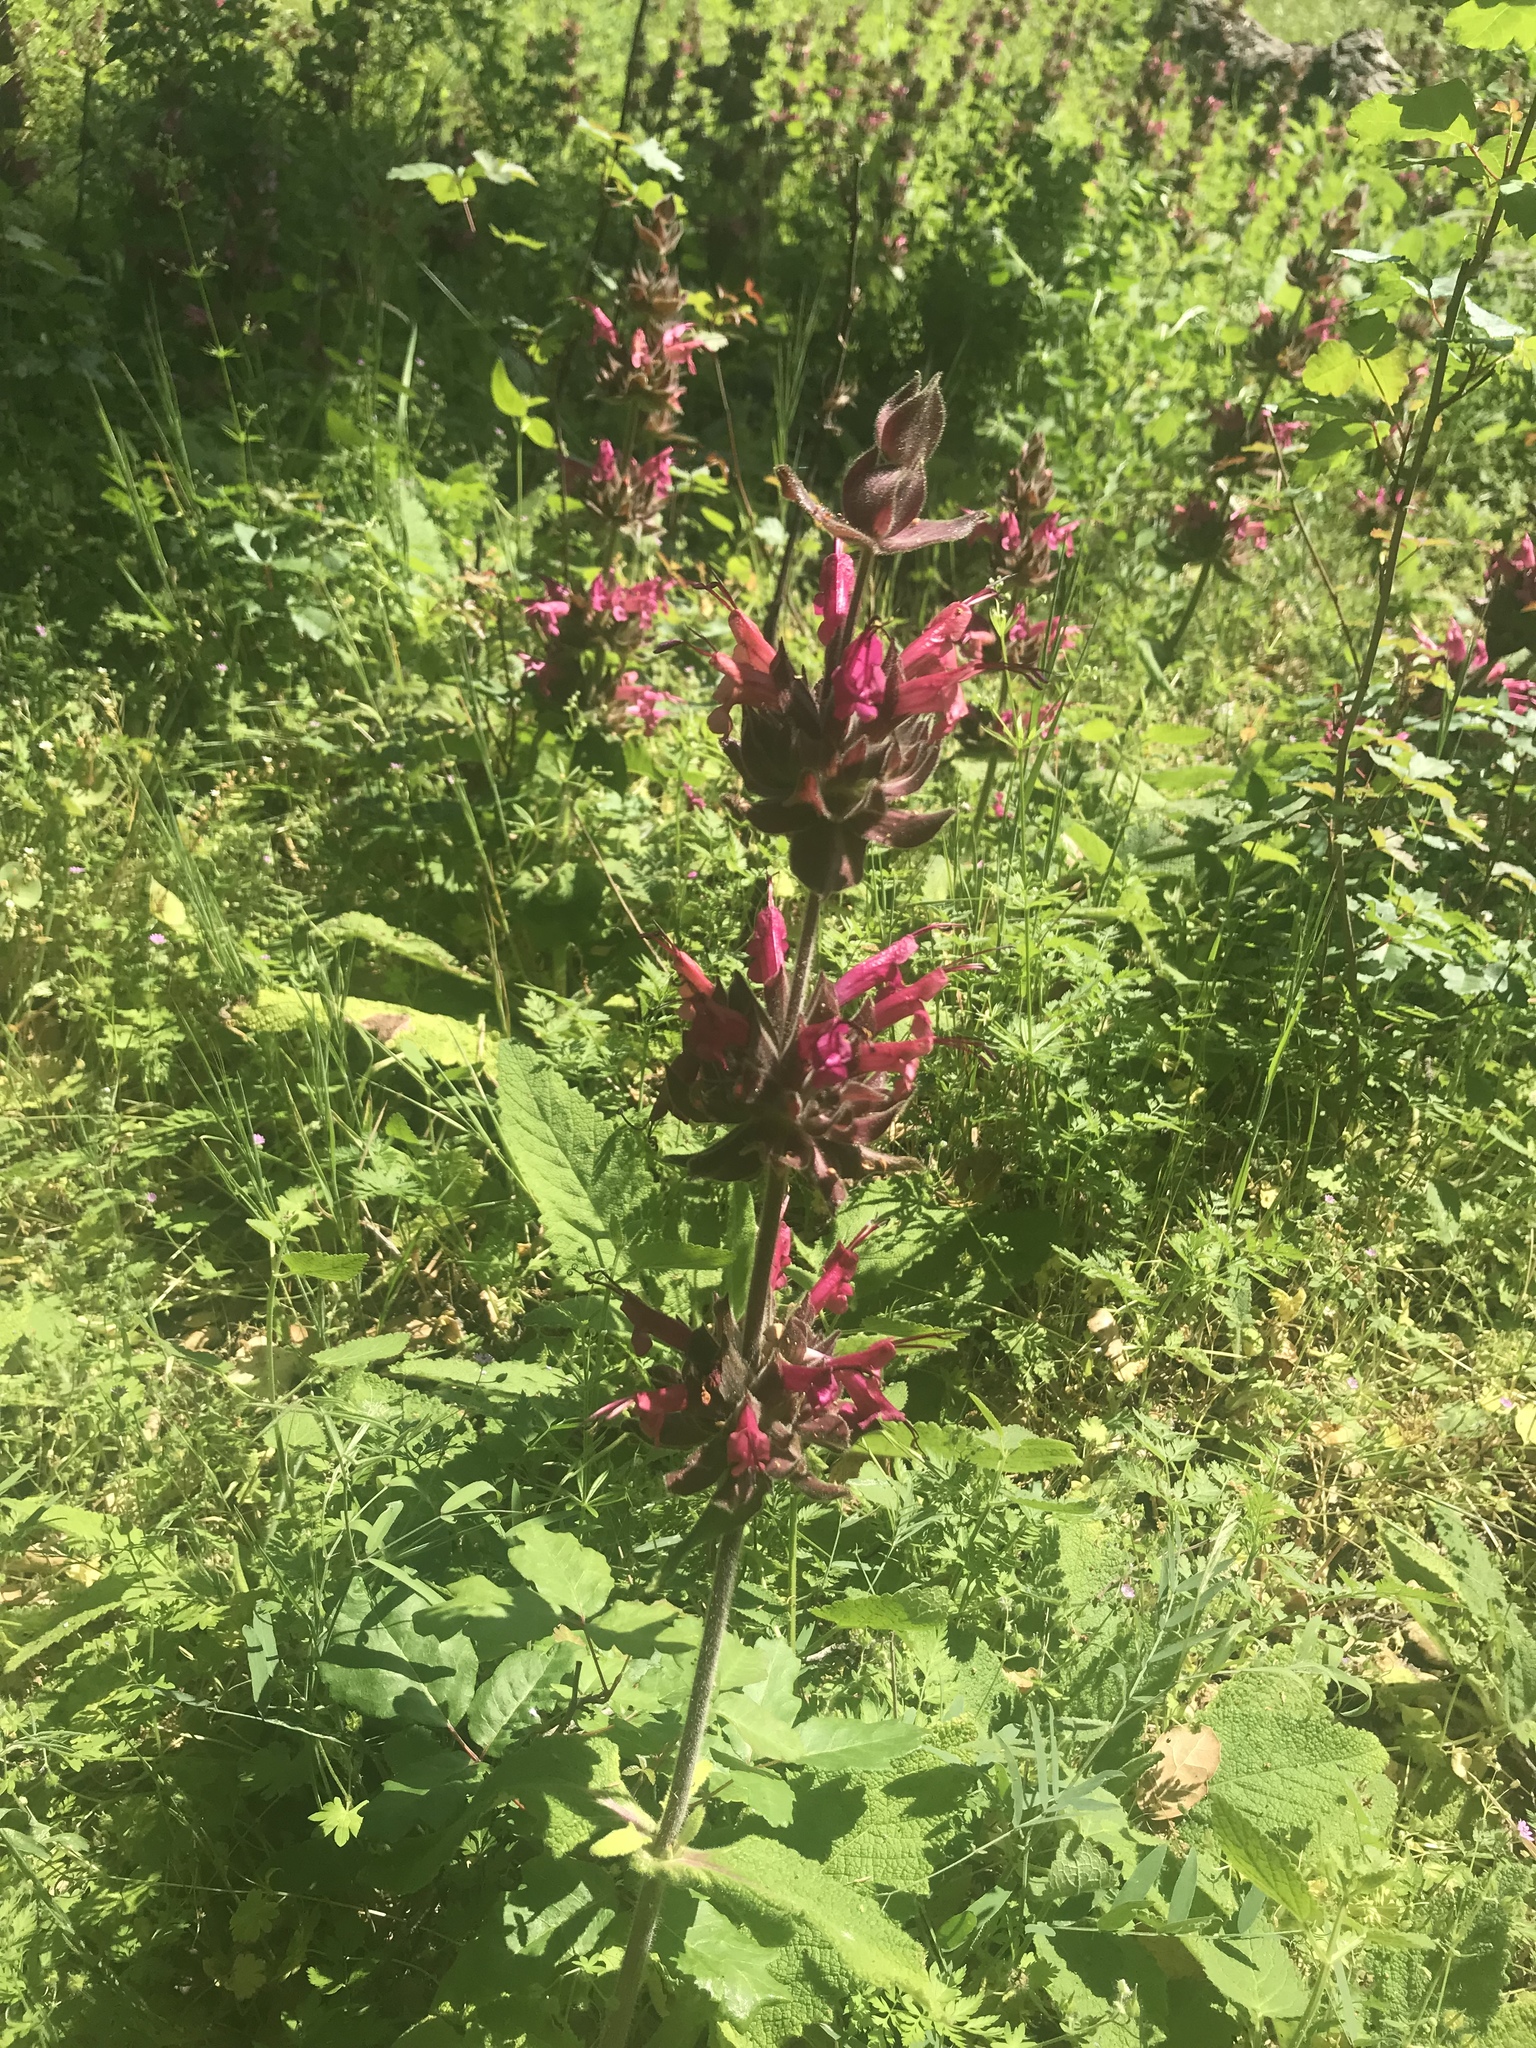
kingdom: Plantae
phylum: Tracheophyta
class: Magnoliopsida
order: Lamiales
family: Lamiaceae
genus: Salvia
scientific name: Salvia spathacea
